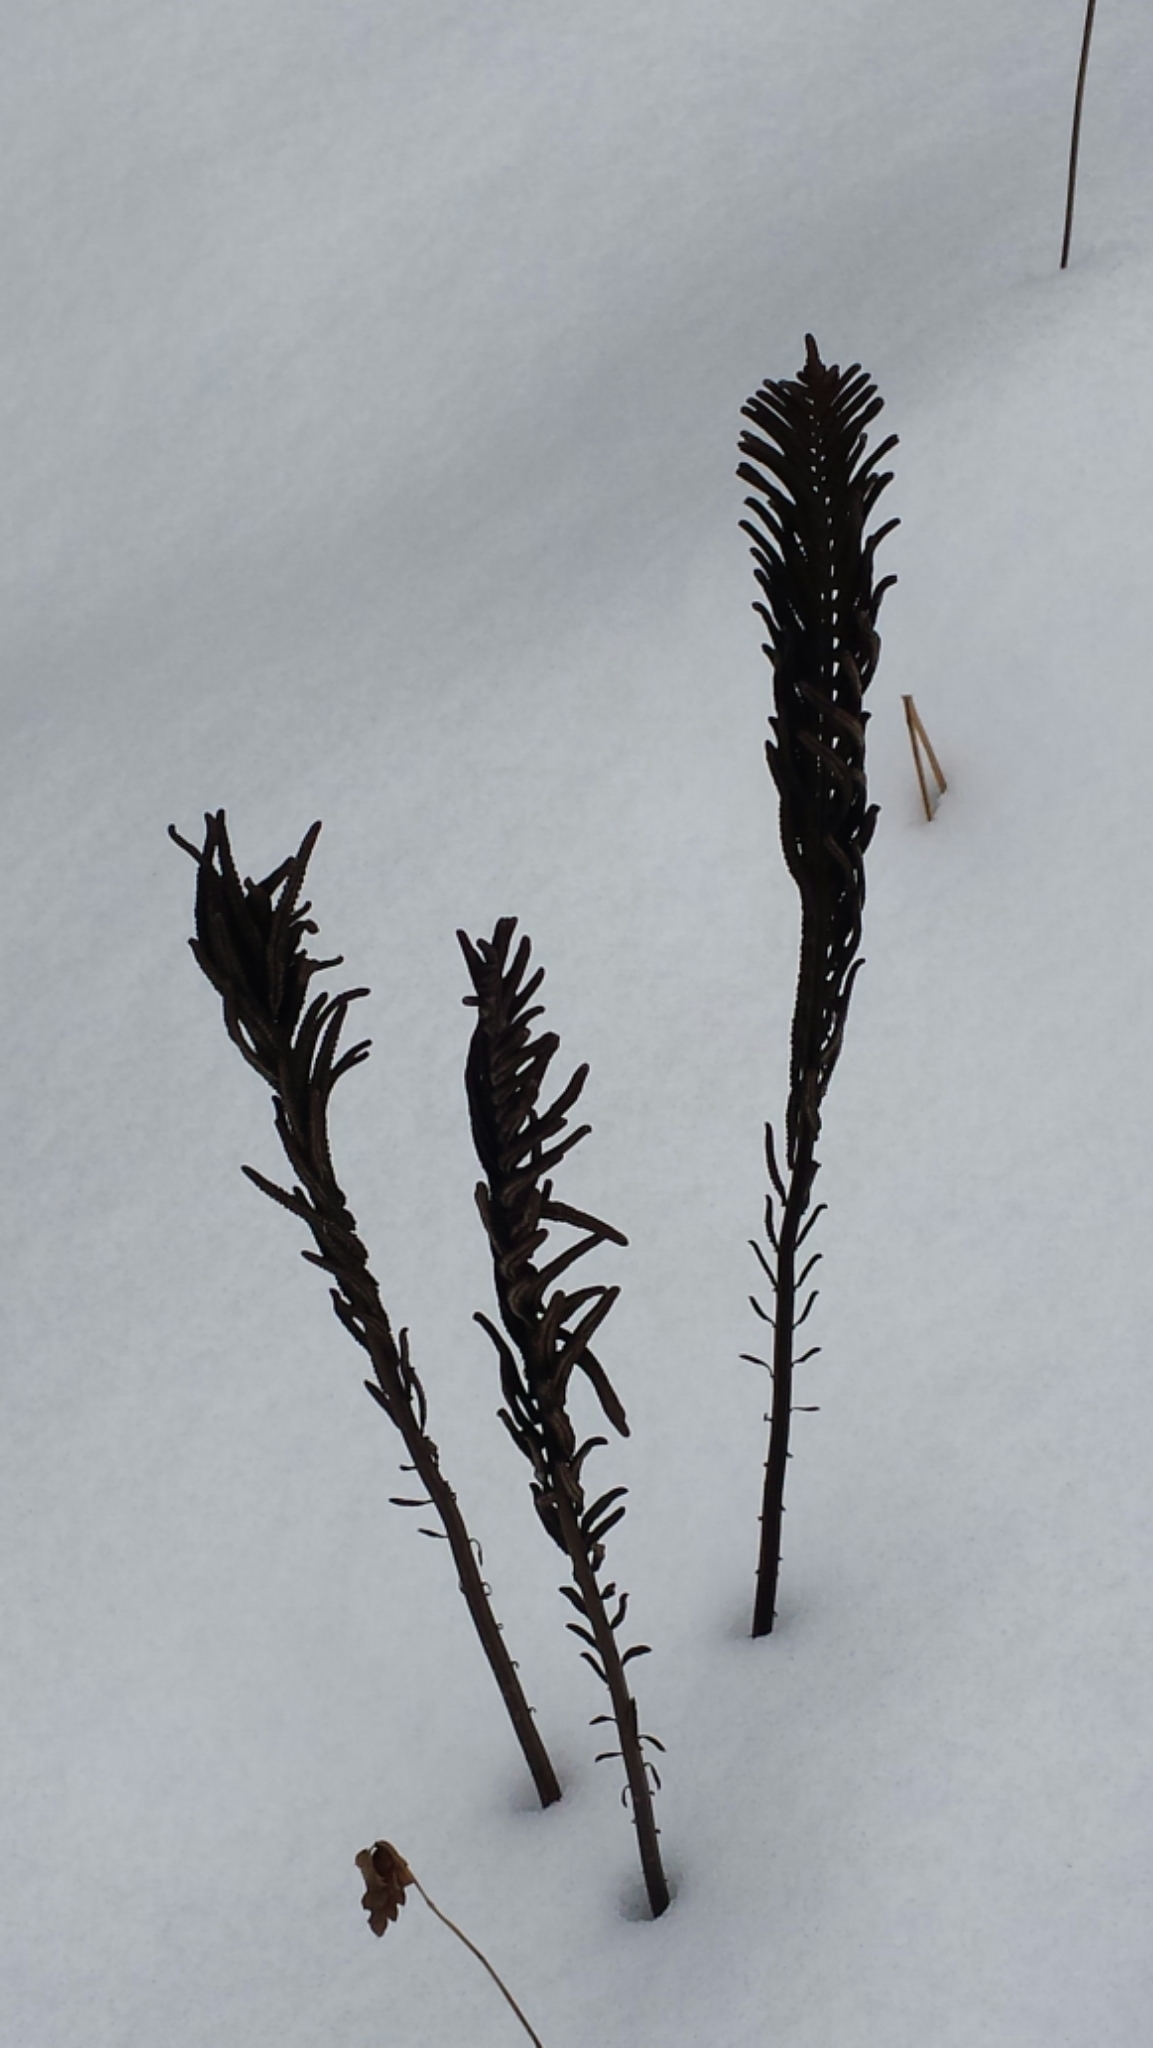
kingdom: Plantae
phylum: Tracheophyta
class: Polypodiopsida
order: Polypodiales
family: Onocleaceae
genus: Matteuccia
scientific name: Matteuccia struthiopteris
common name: Ostrich fern
